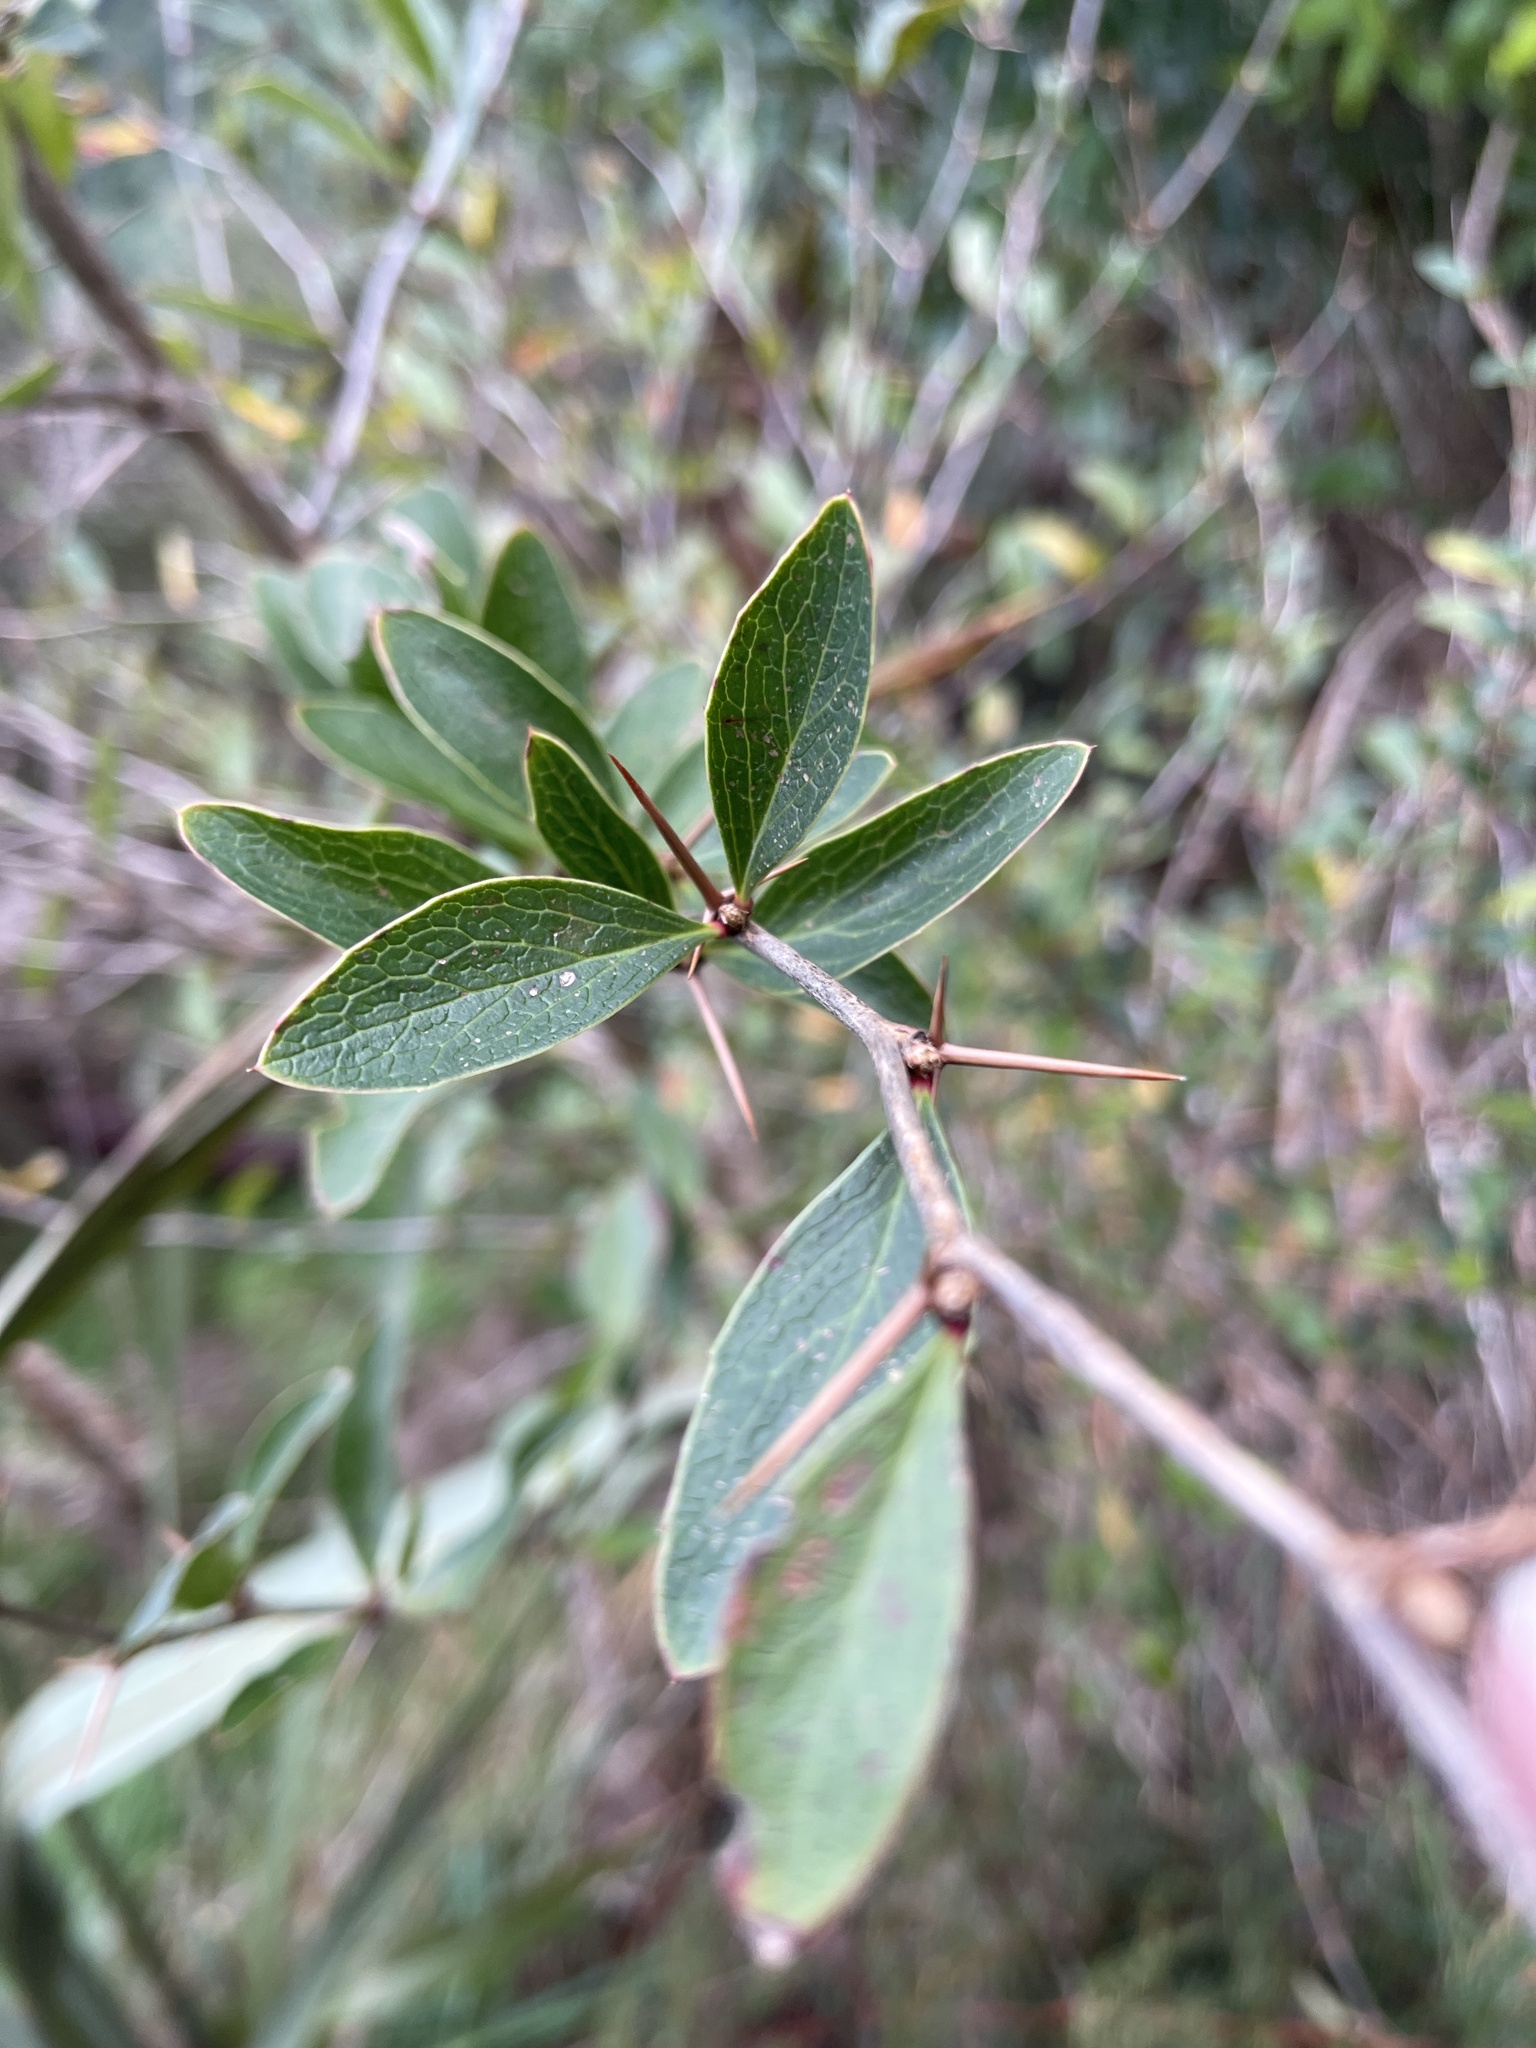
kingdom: Plantae
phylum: Tracheophyta
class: Magnoliopsida
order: Ranunculales
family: Berberidaceae
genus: Berberis
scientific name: Berberis glaucocarpa
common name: Great barberry
